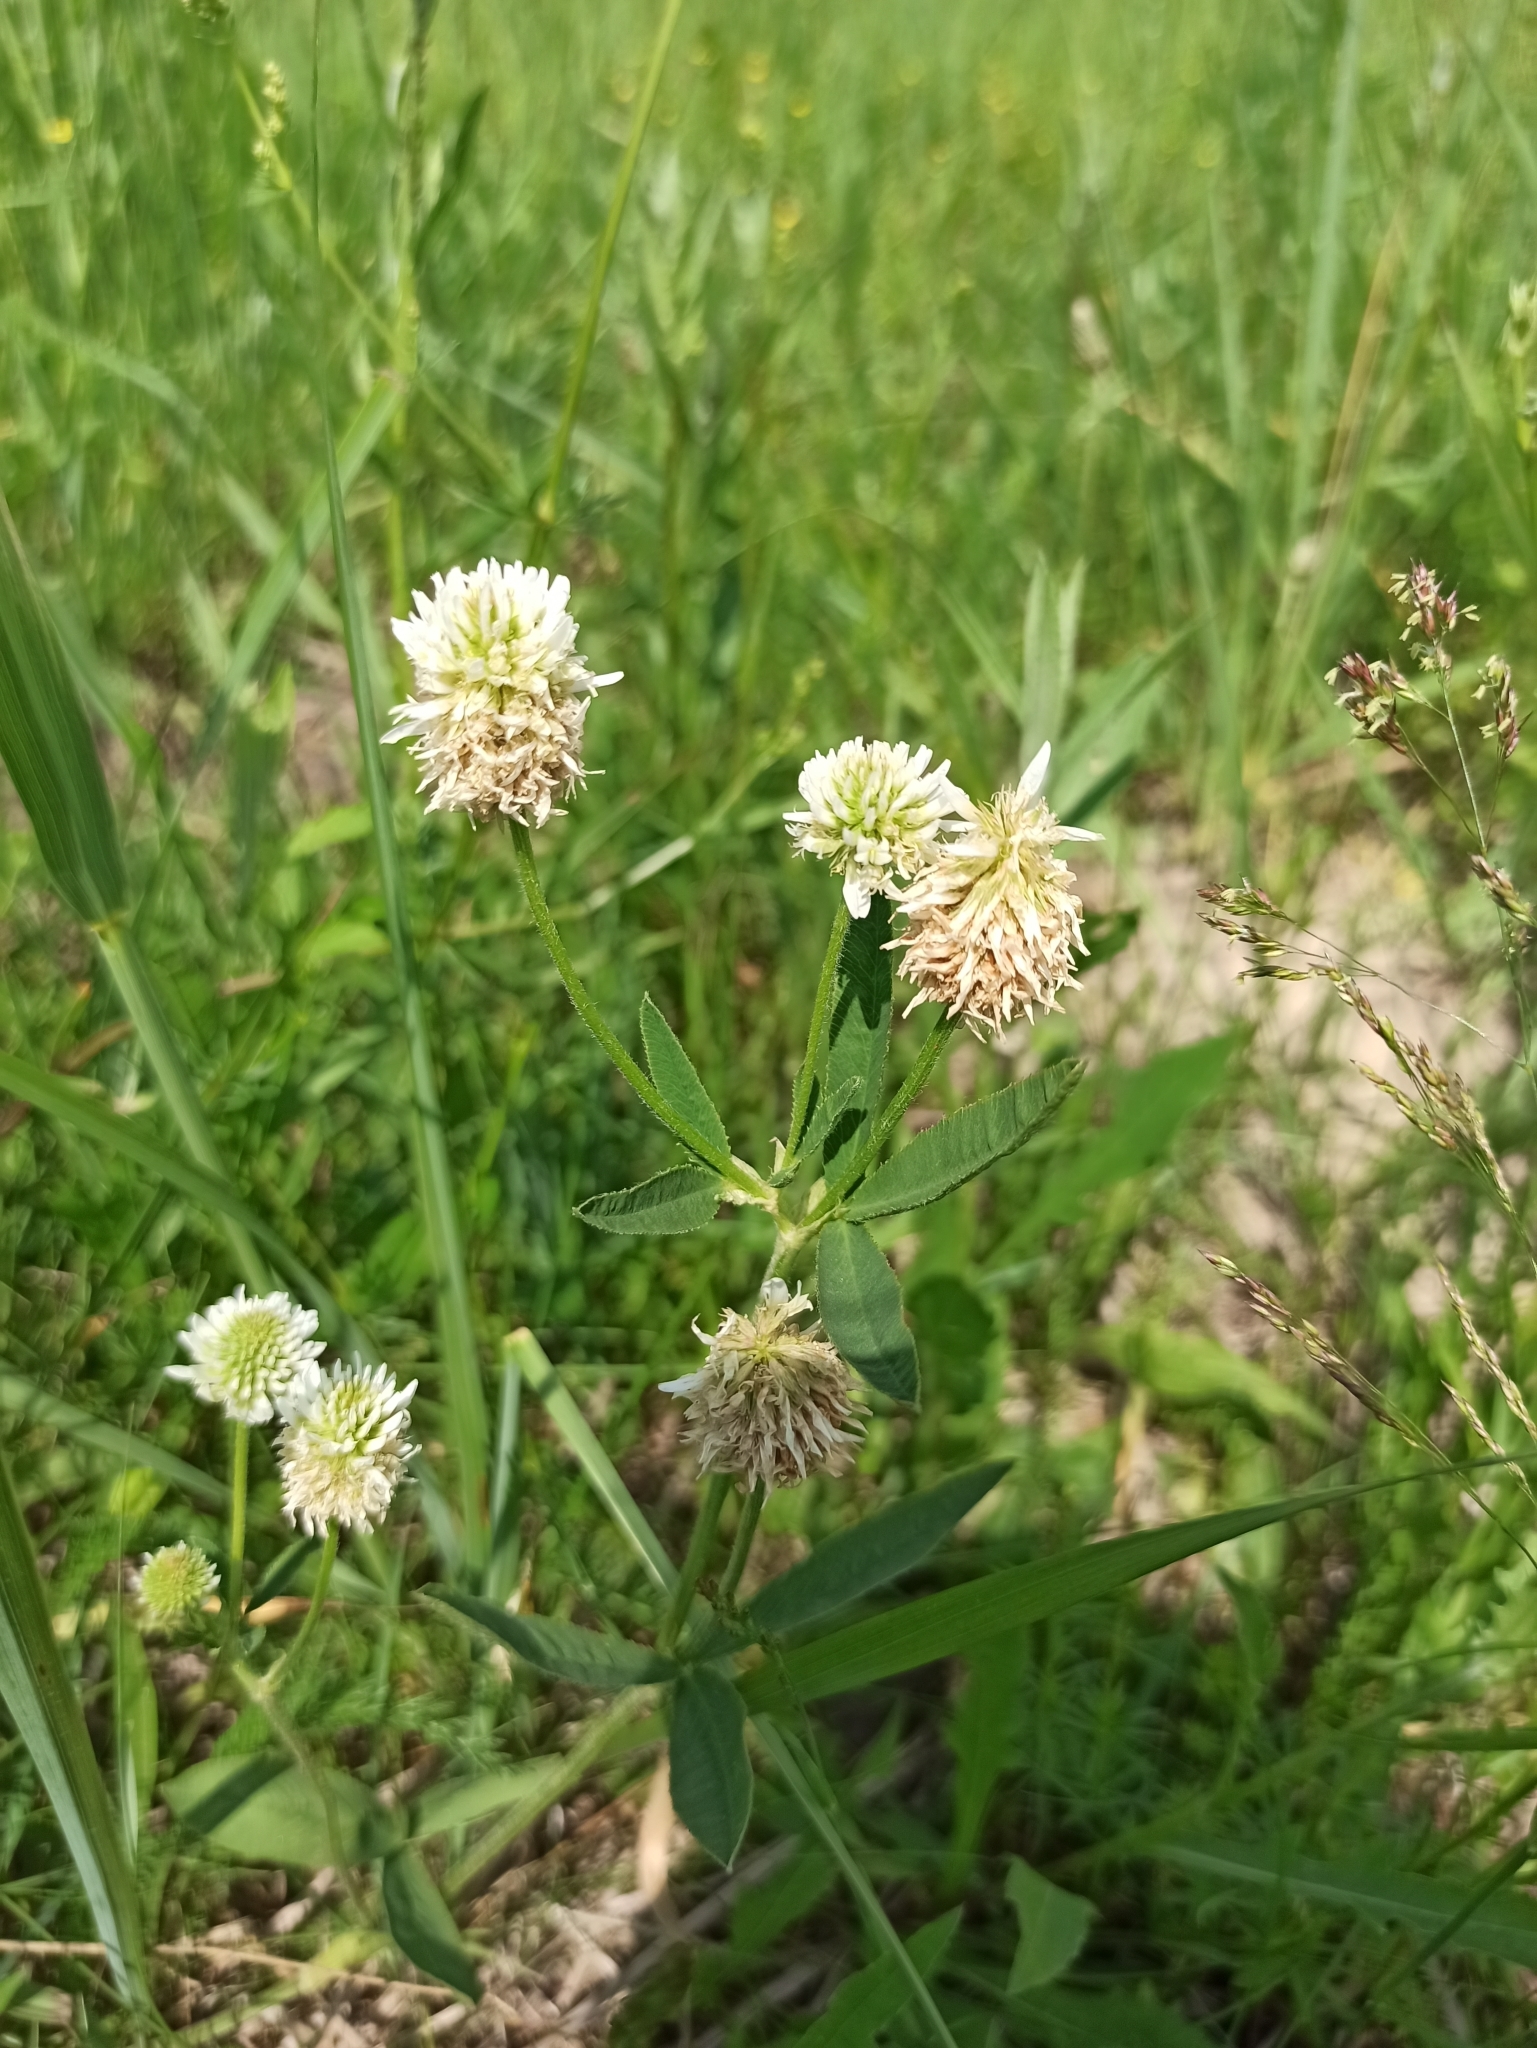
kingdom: Plantae
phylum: Tracheophyta
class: Magnoliopsida
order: Fabales
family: Fabaceae
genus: Trifolium
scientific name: Trifolium montanum
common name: Mountain clover
